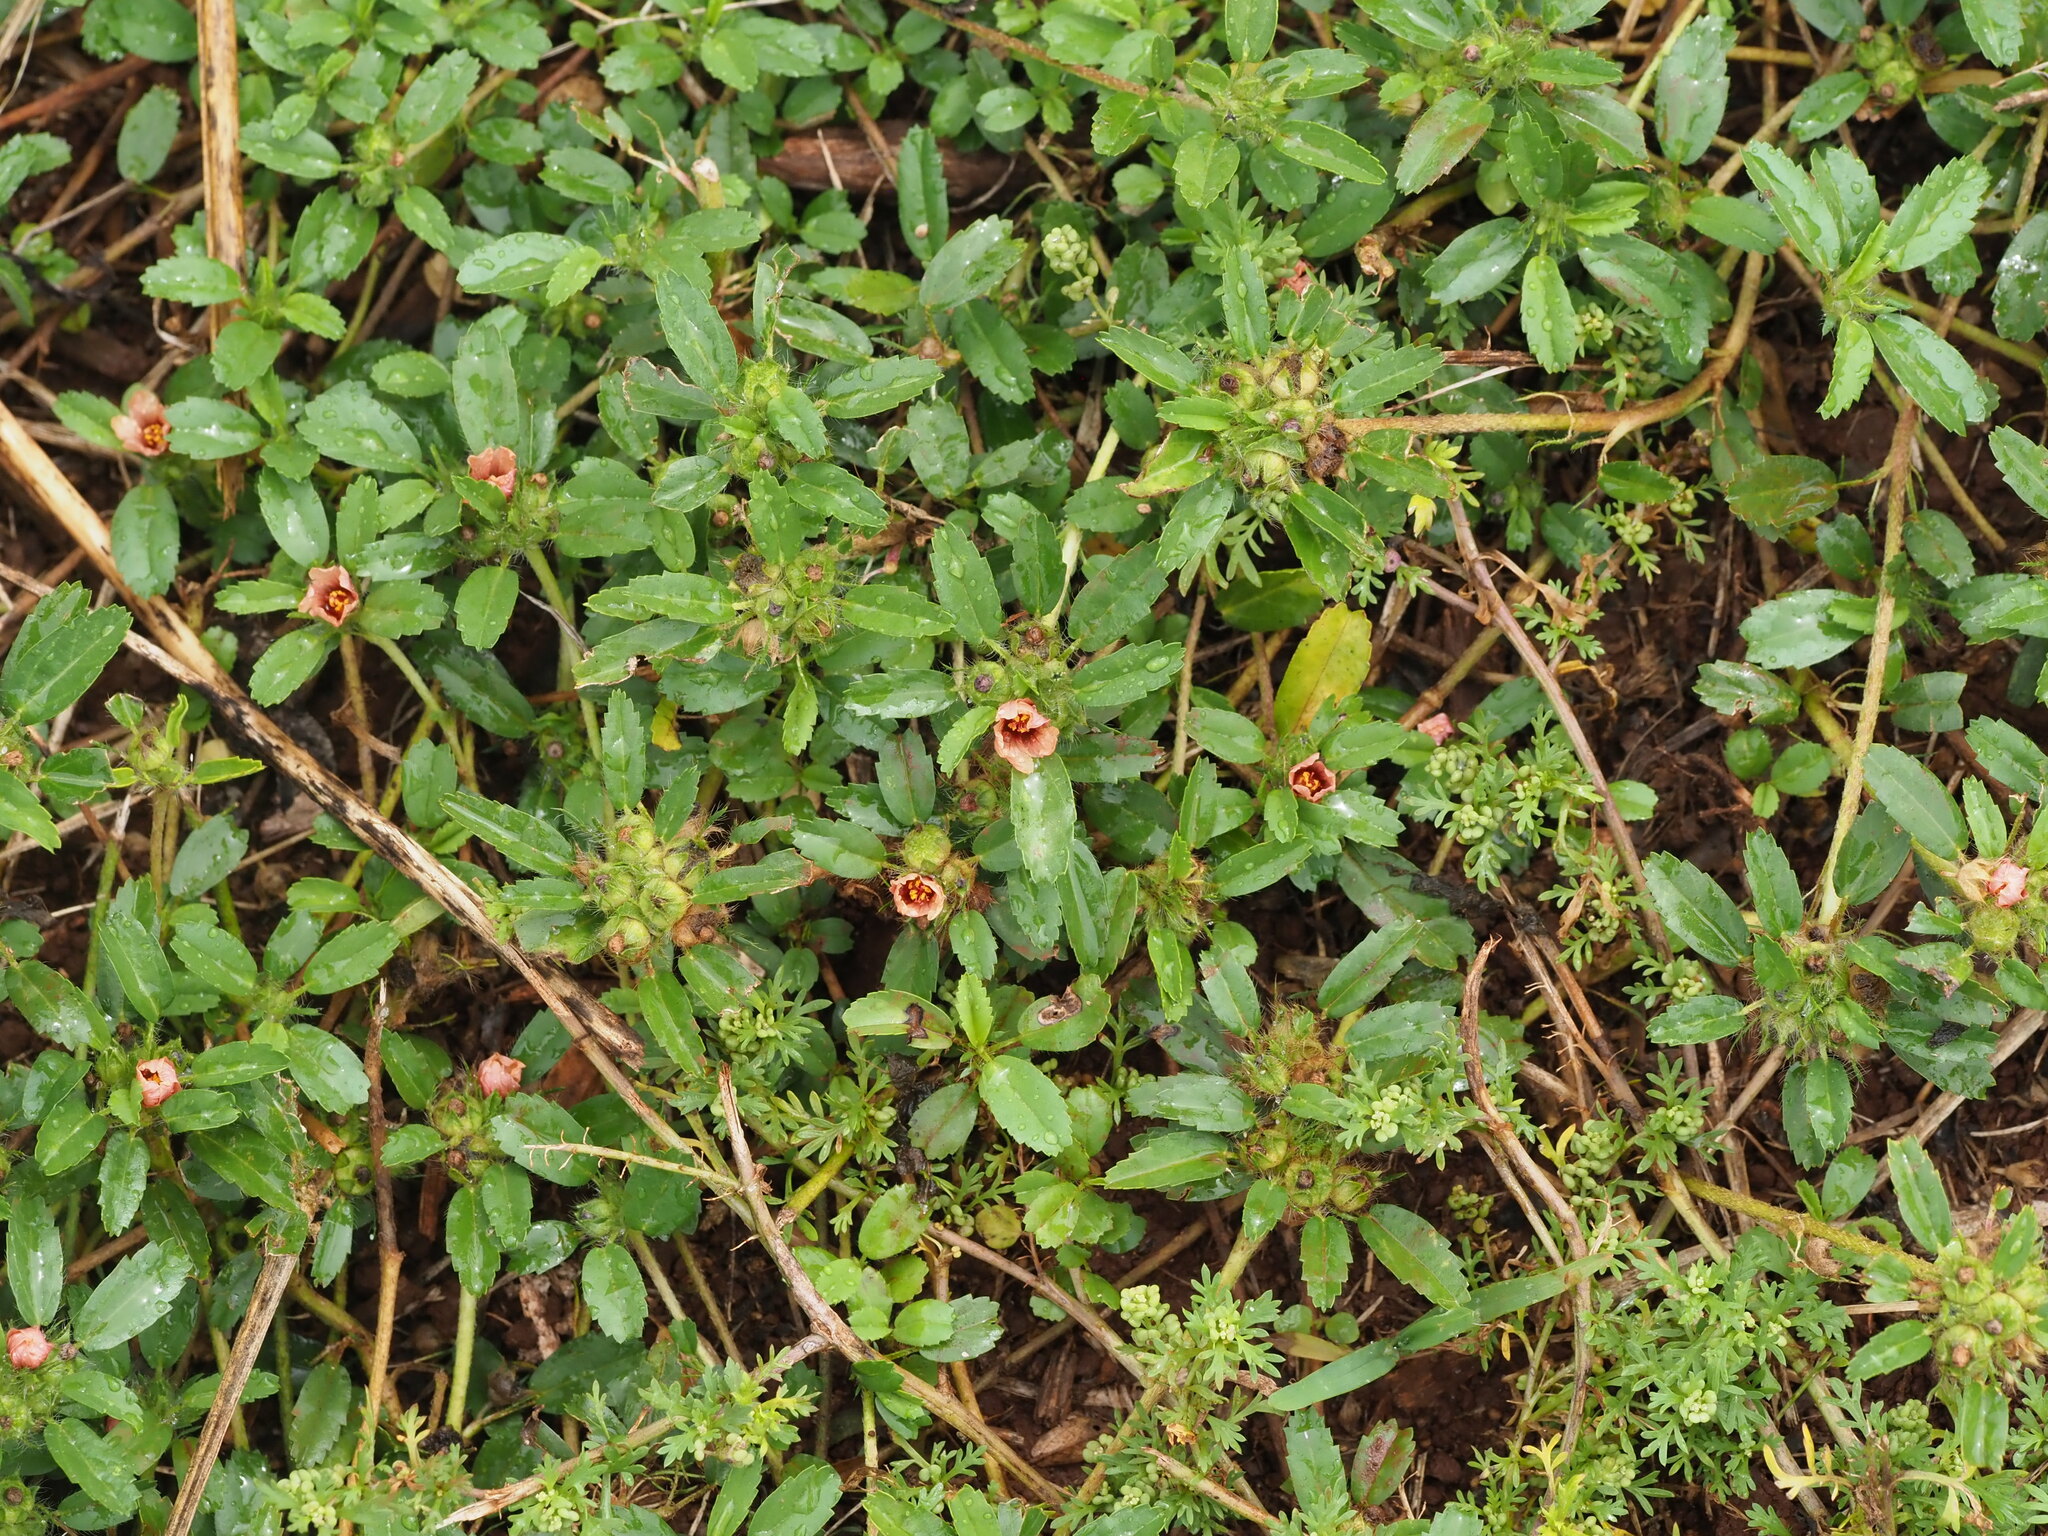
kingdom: Plantae
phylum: Tracheophyta
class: Magnoliopsida
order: Malvales
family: Malvaceae
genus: Sida
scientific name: Sida ciliaris
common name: Bracted fanpetals
